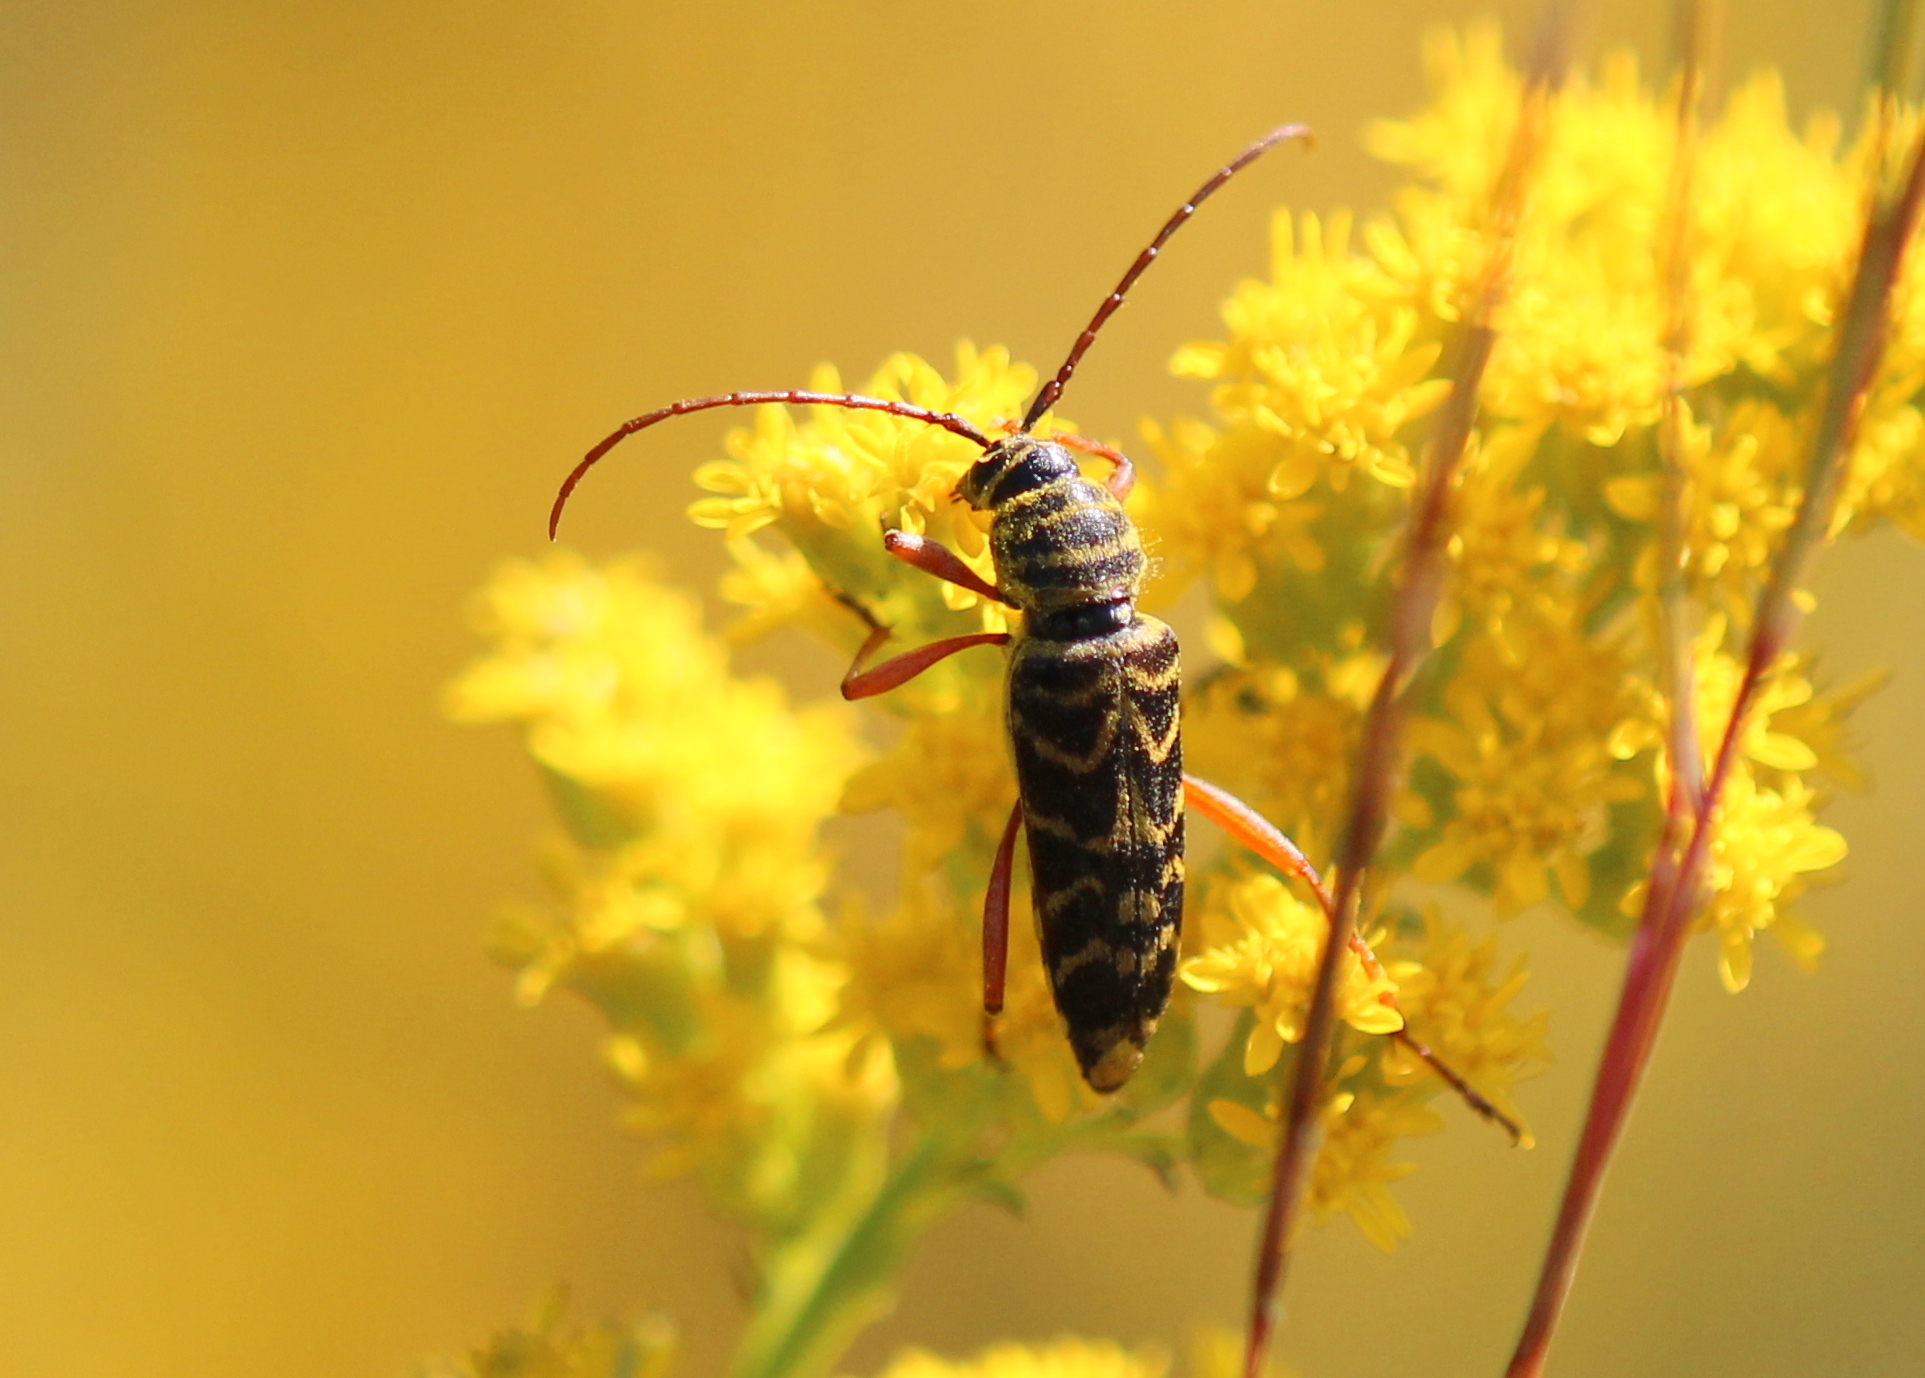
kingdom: Animalia
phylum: Arthropoda
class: Insecta
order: Coleoptera
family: Cerambycidae
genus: Megacyllene
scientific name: Megacyllene robiniae
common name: Locust borer
